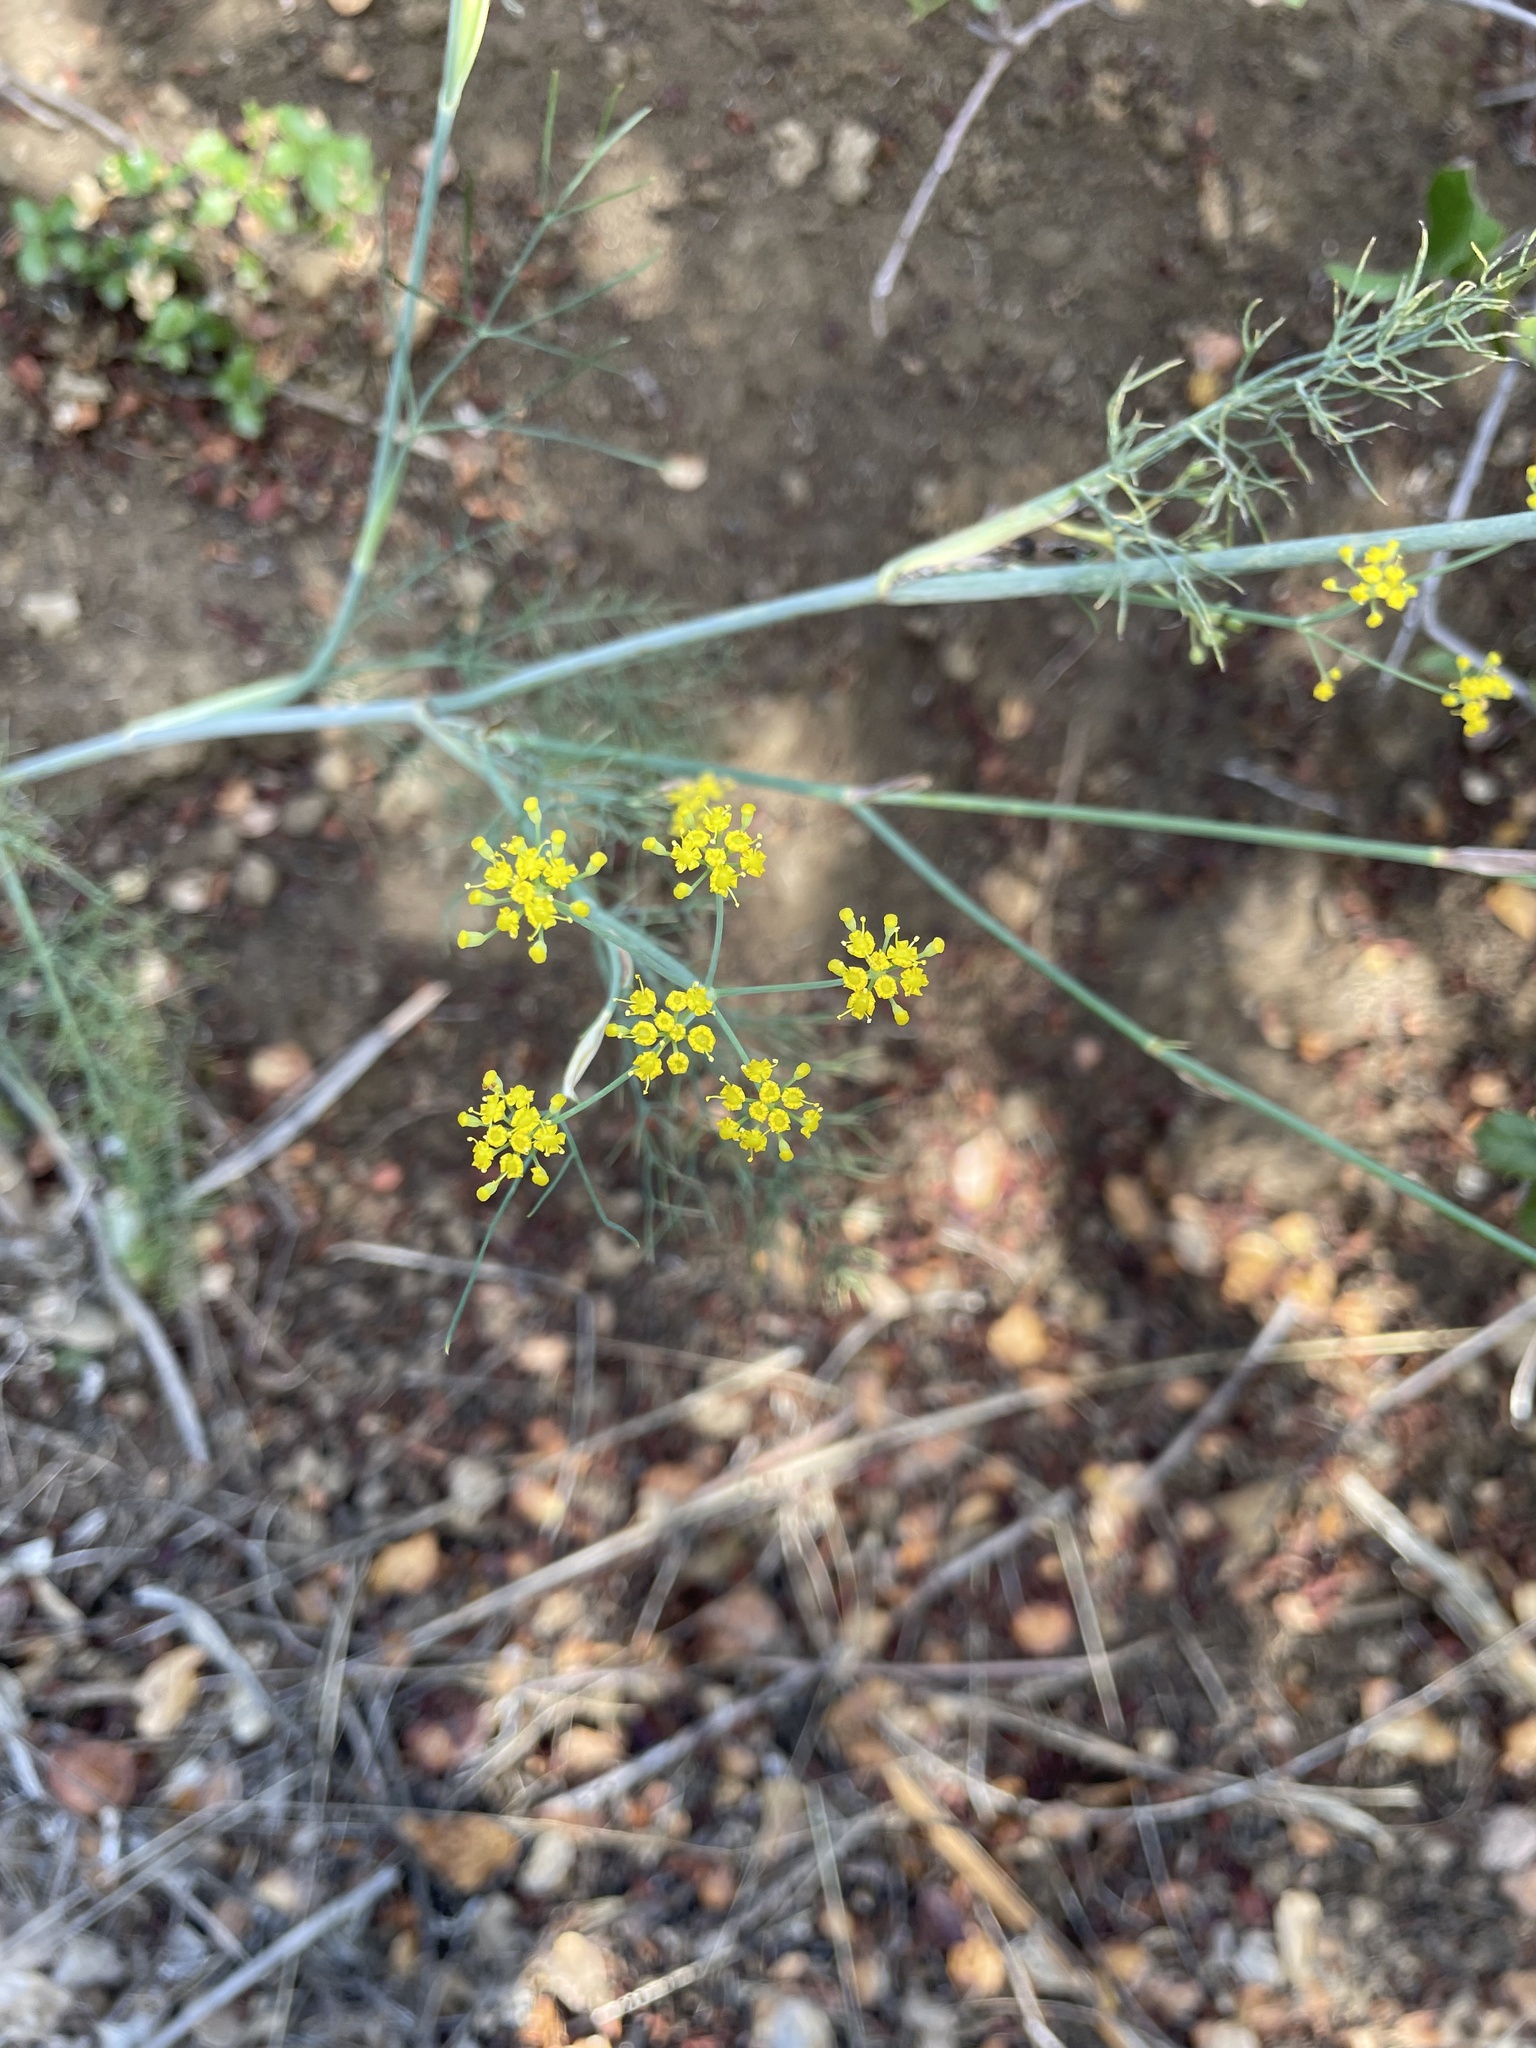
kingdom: Plantae
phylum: Tracheophyta
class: Magnoliopsida
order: Apiales
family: Apiaceae
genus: Foeniculum
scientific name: Foeniculum vulgare
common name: Fennel
